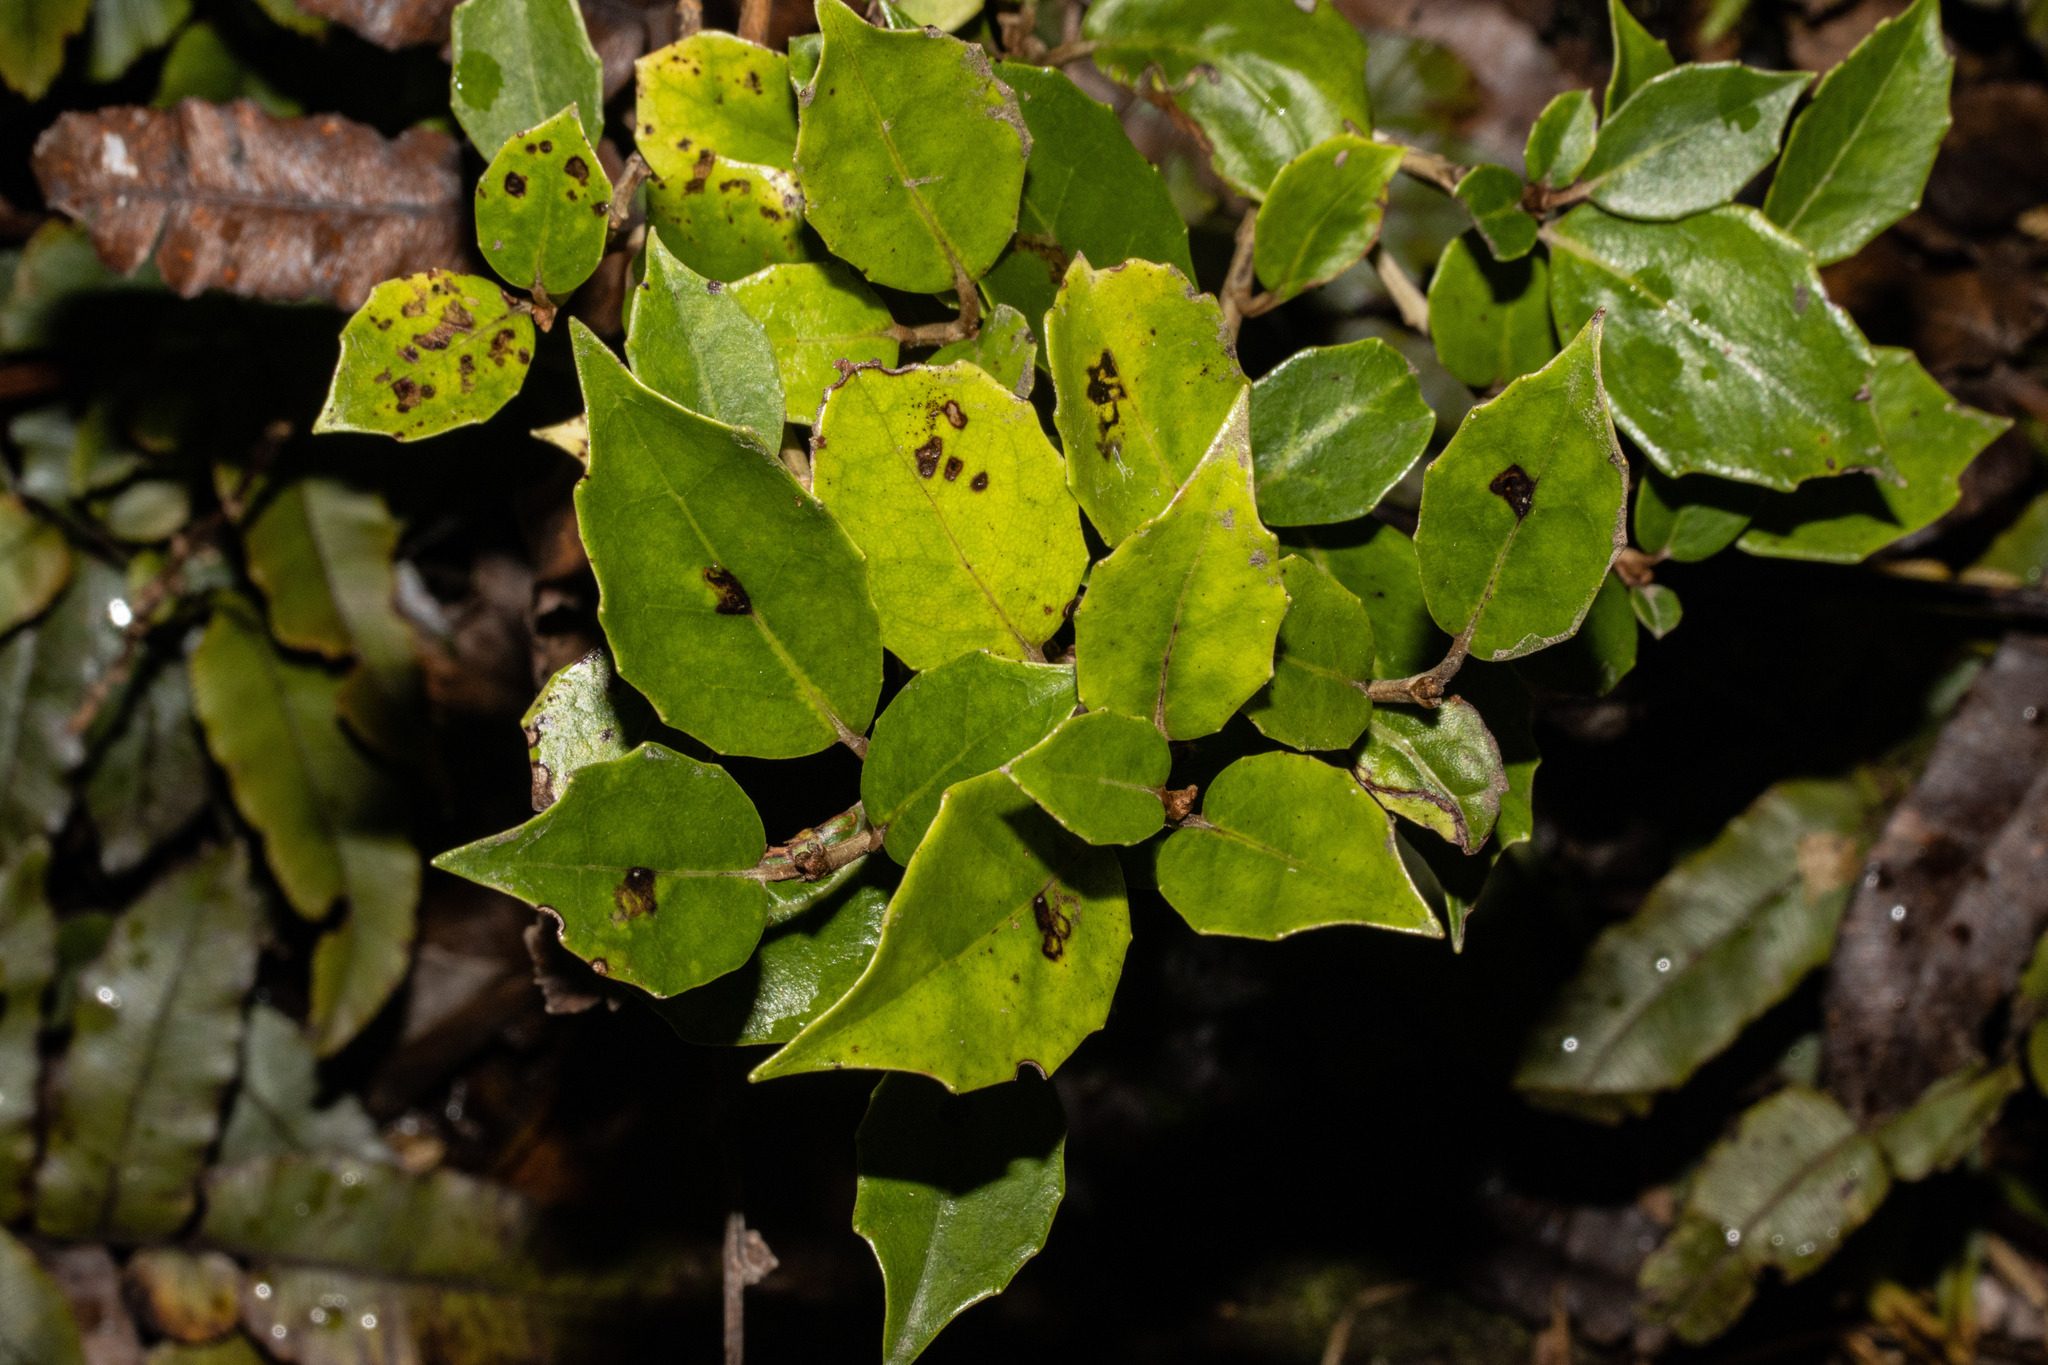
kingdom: Plantae
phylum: Tracheophyta
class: Magnoliopsida
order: Asterales
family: Asteraceae
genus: Olearia
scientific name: Olearia arborescens
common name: Glossy tree daisy
